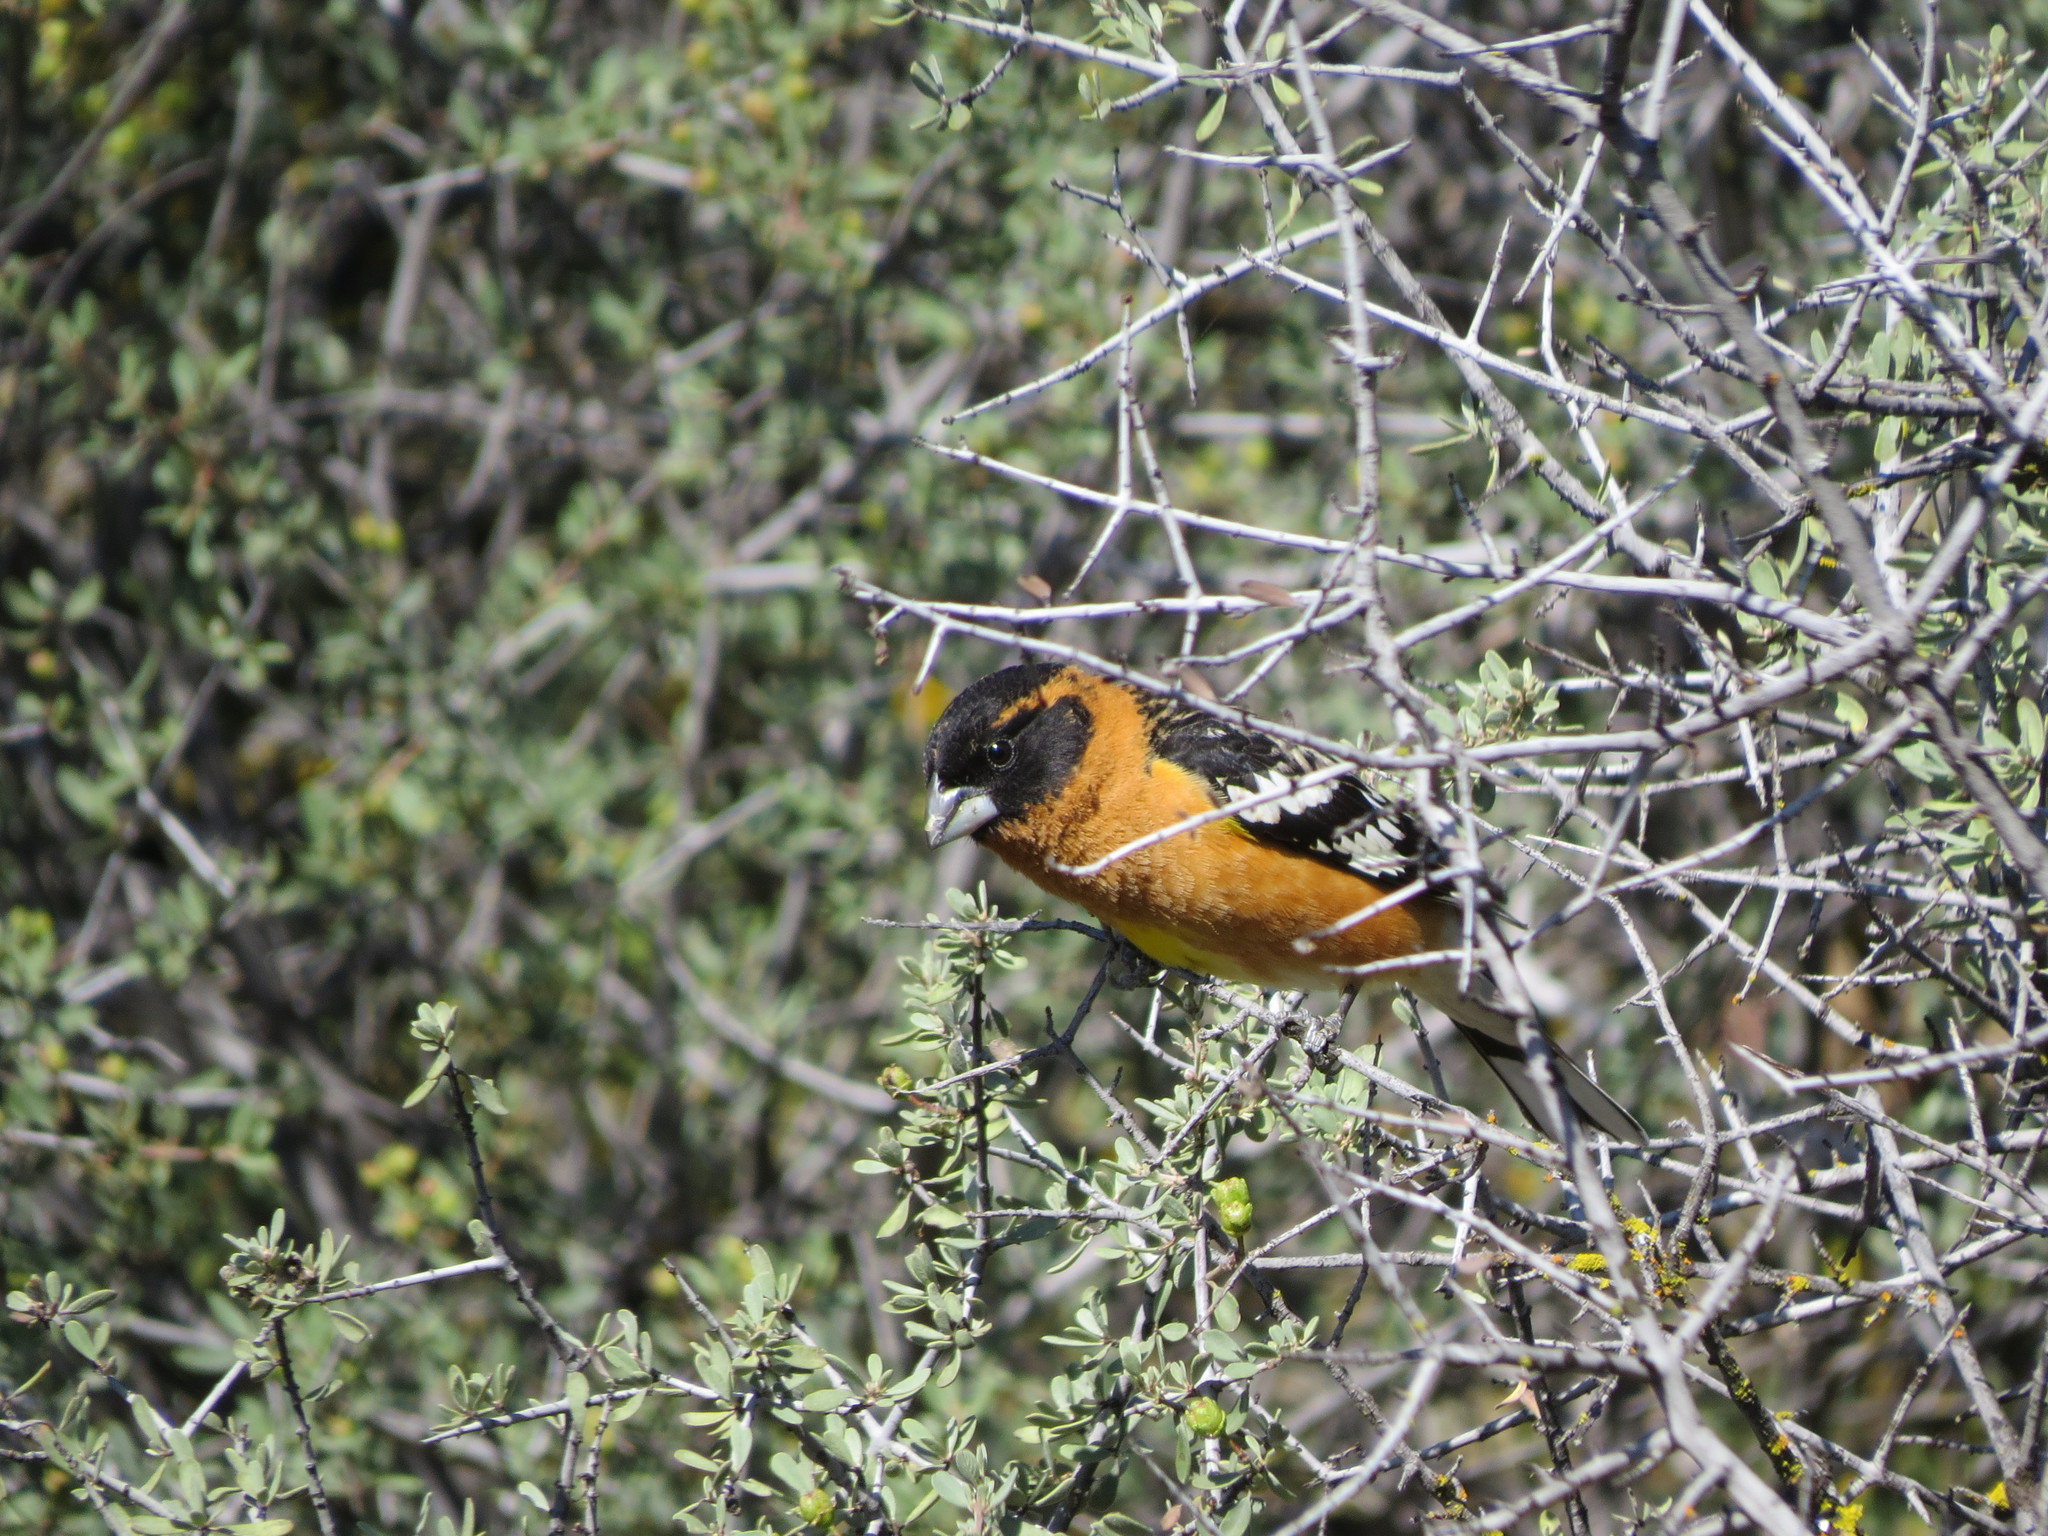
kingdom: Animalia
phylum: Chordata
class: Aves
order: Passeriformes
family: Cardinalidae
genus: Pheucticus
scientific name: Pheucticus melanocephalus
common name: Black-headed grosbeak
